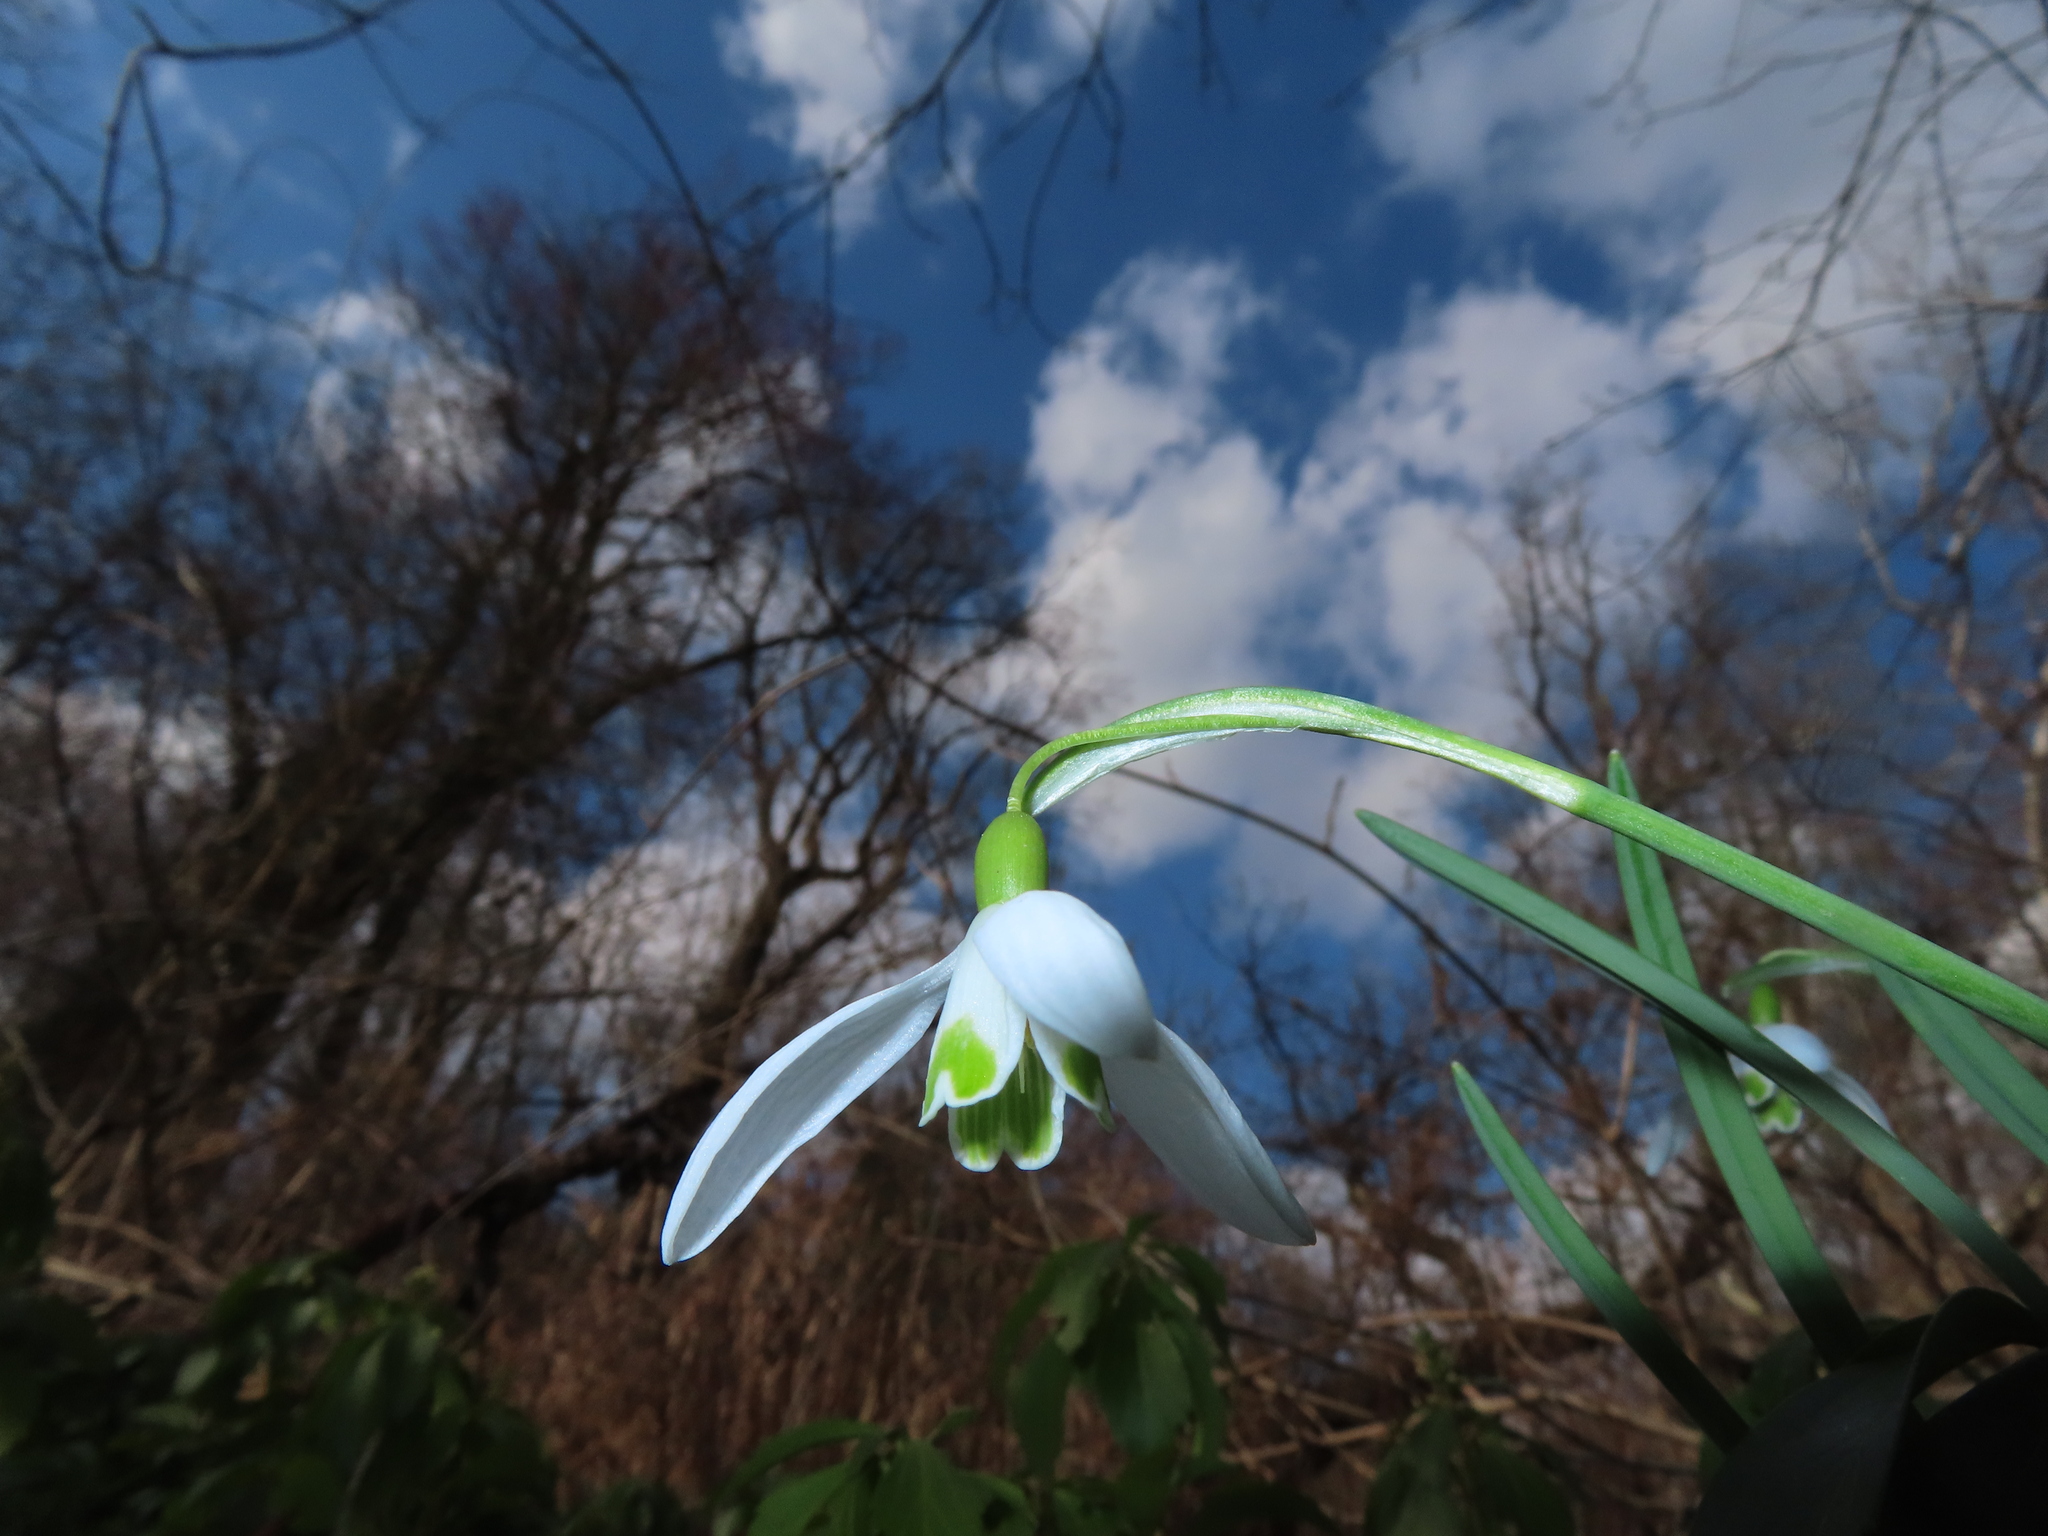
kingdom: Plantae
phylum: Tracheophyta
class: Liliopsida
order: Asparagales
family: Amaryllidaceae
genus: Galanthus
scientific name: Galanthus nivalis
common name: Snowdrop
